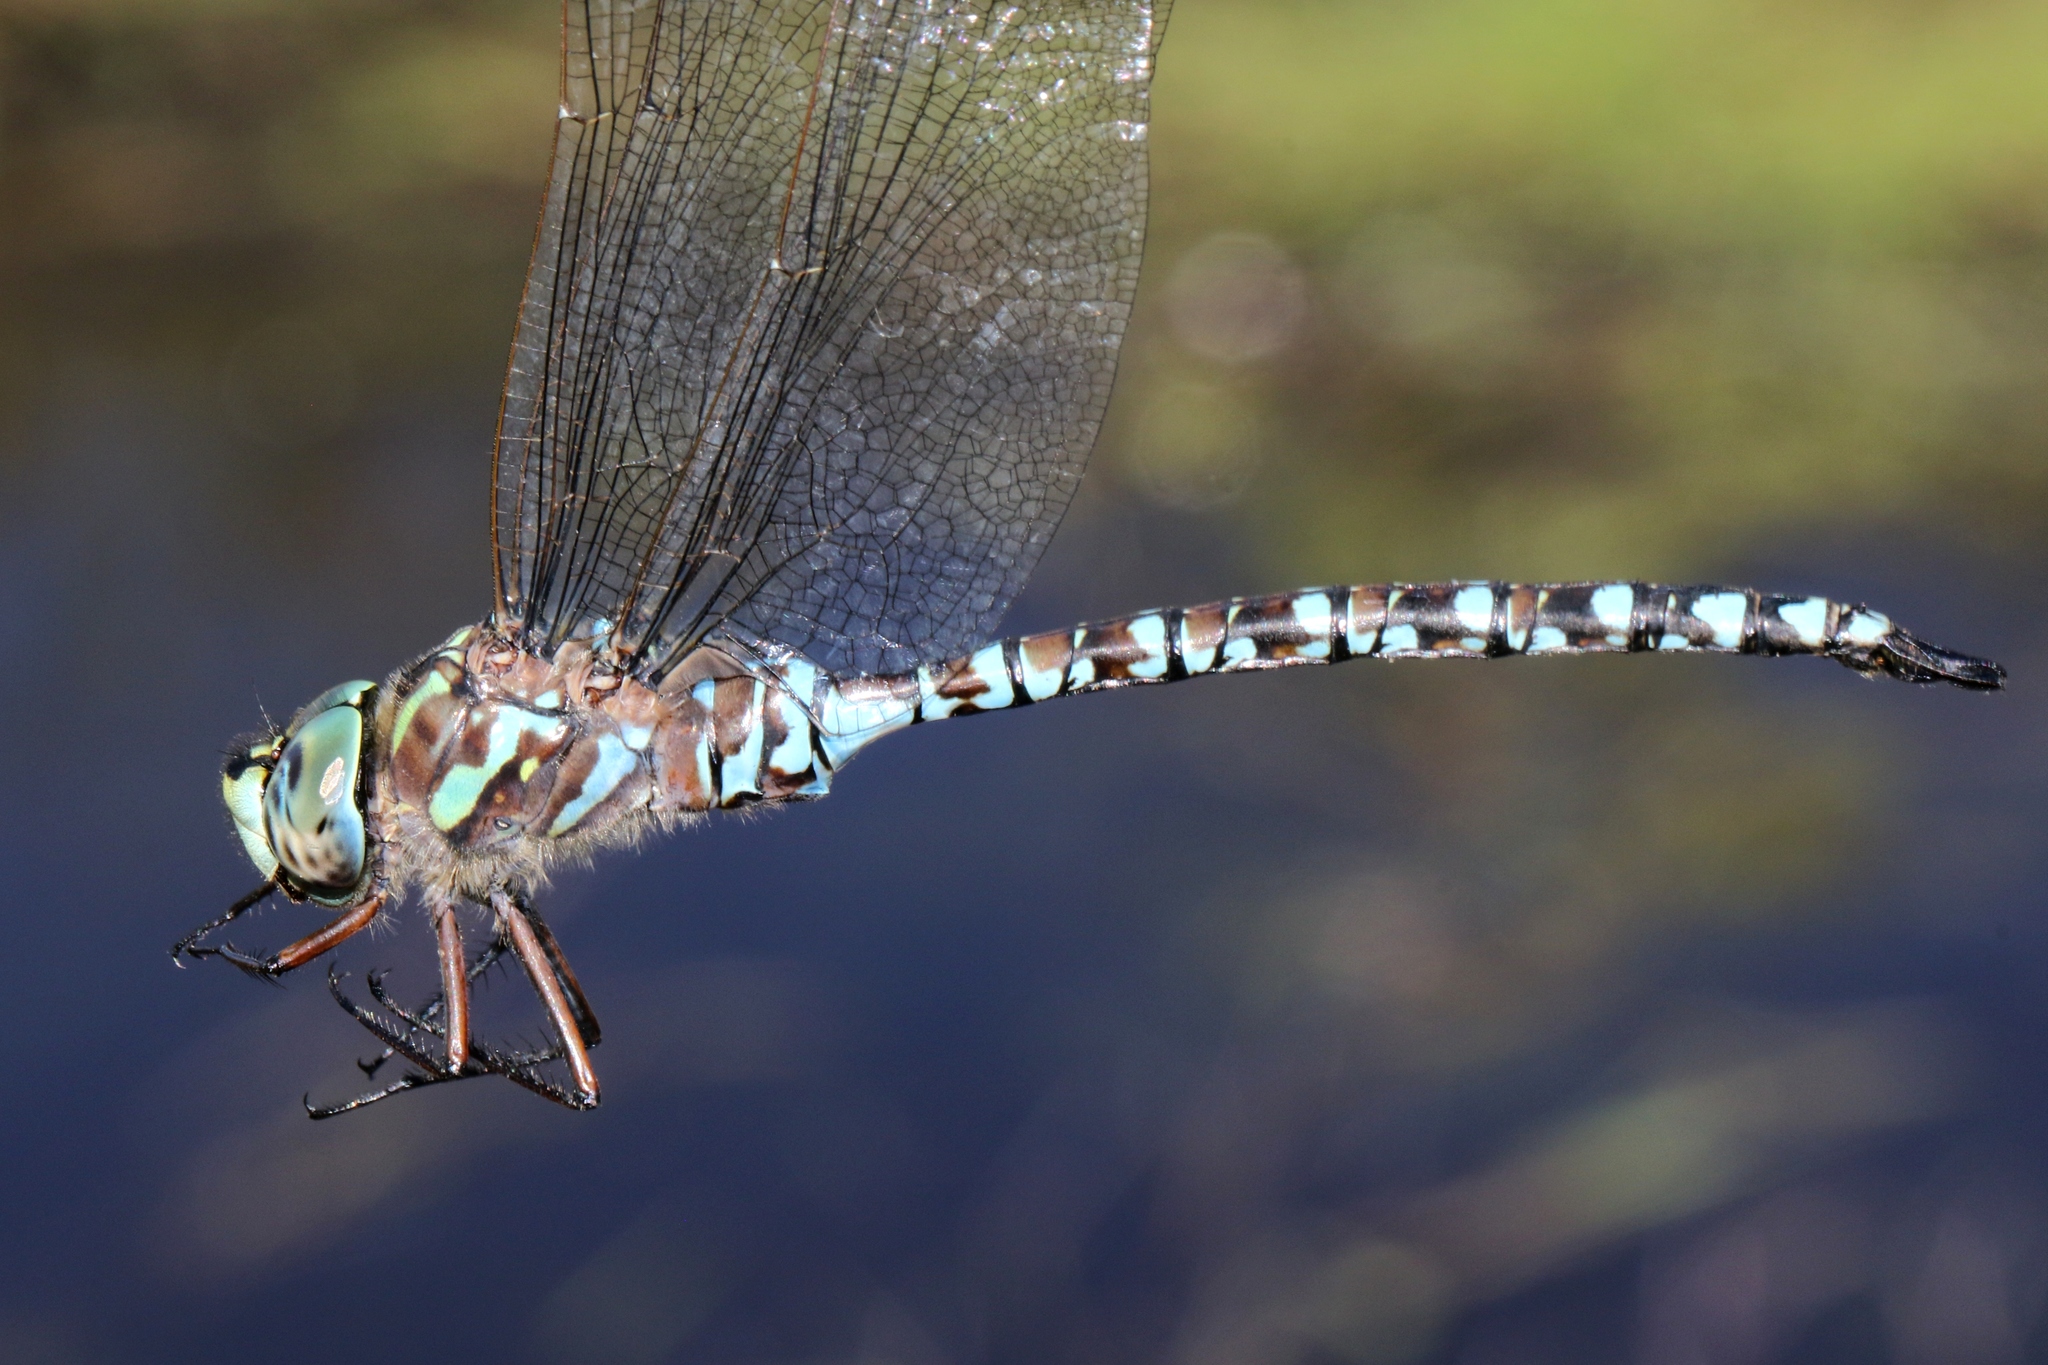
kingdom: Animalia
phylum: Arthropoda
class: Insecta
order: Odonata
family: Aeshnidae
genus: Aeshna
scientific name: Aeshna canadensis
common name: Canada darner
